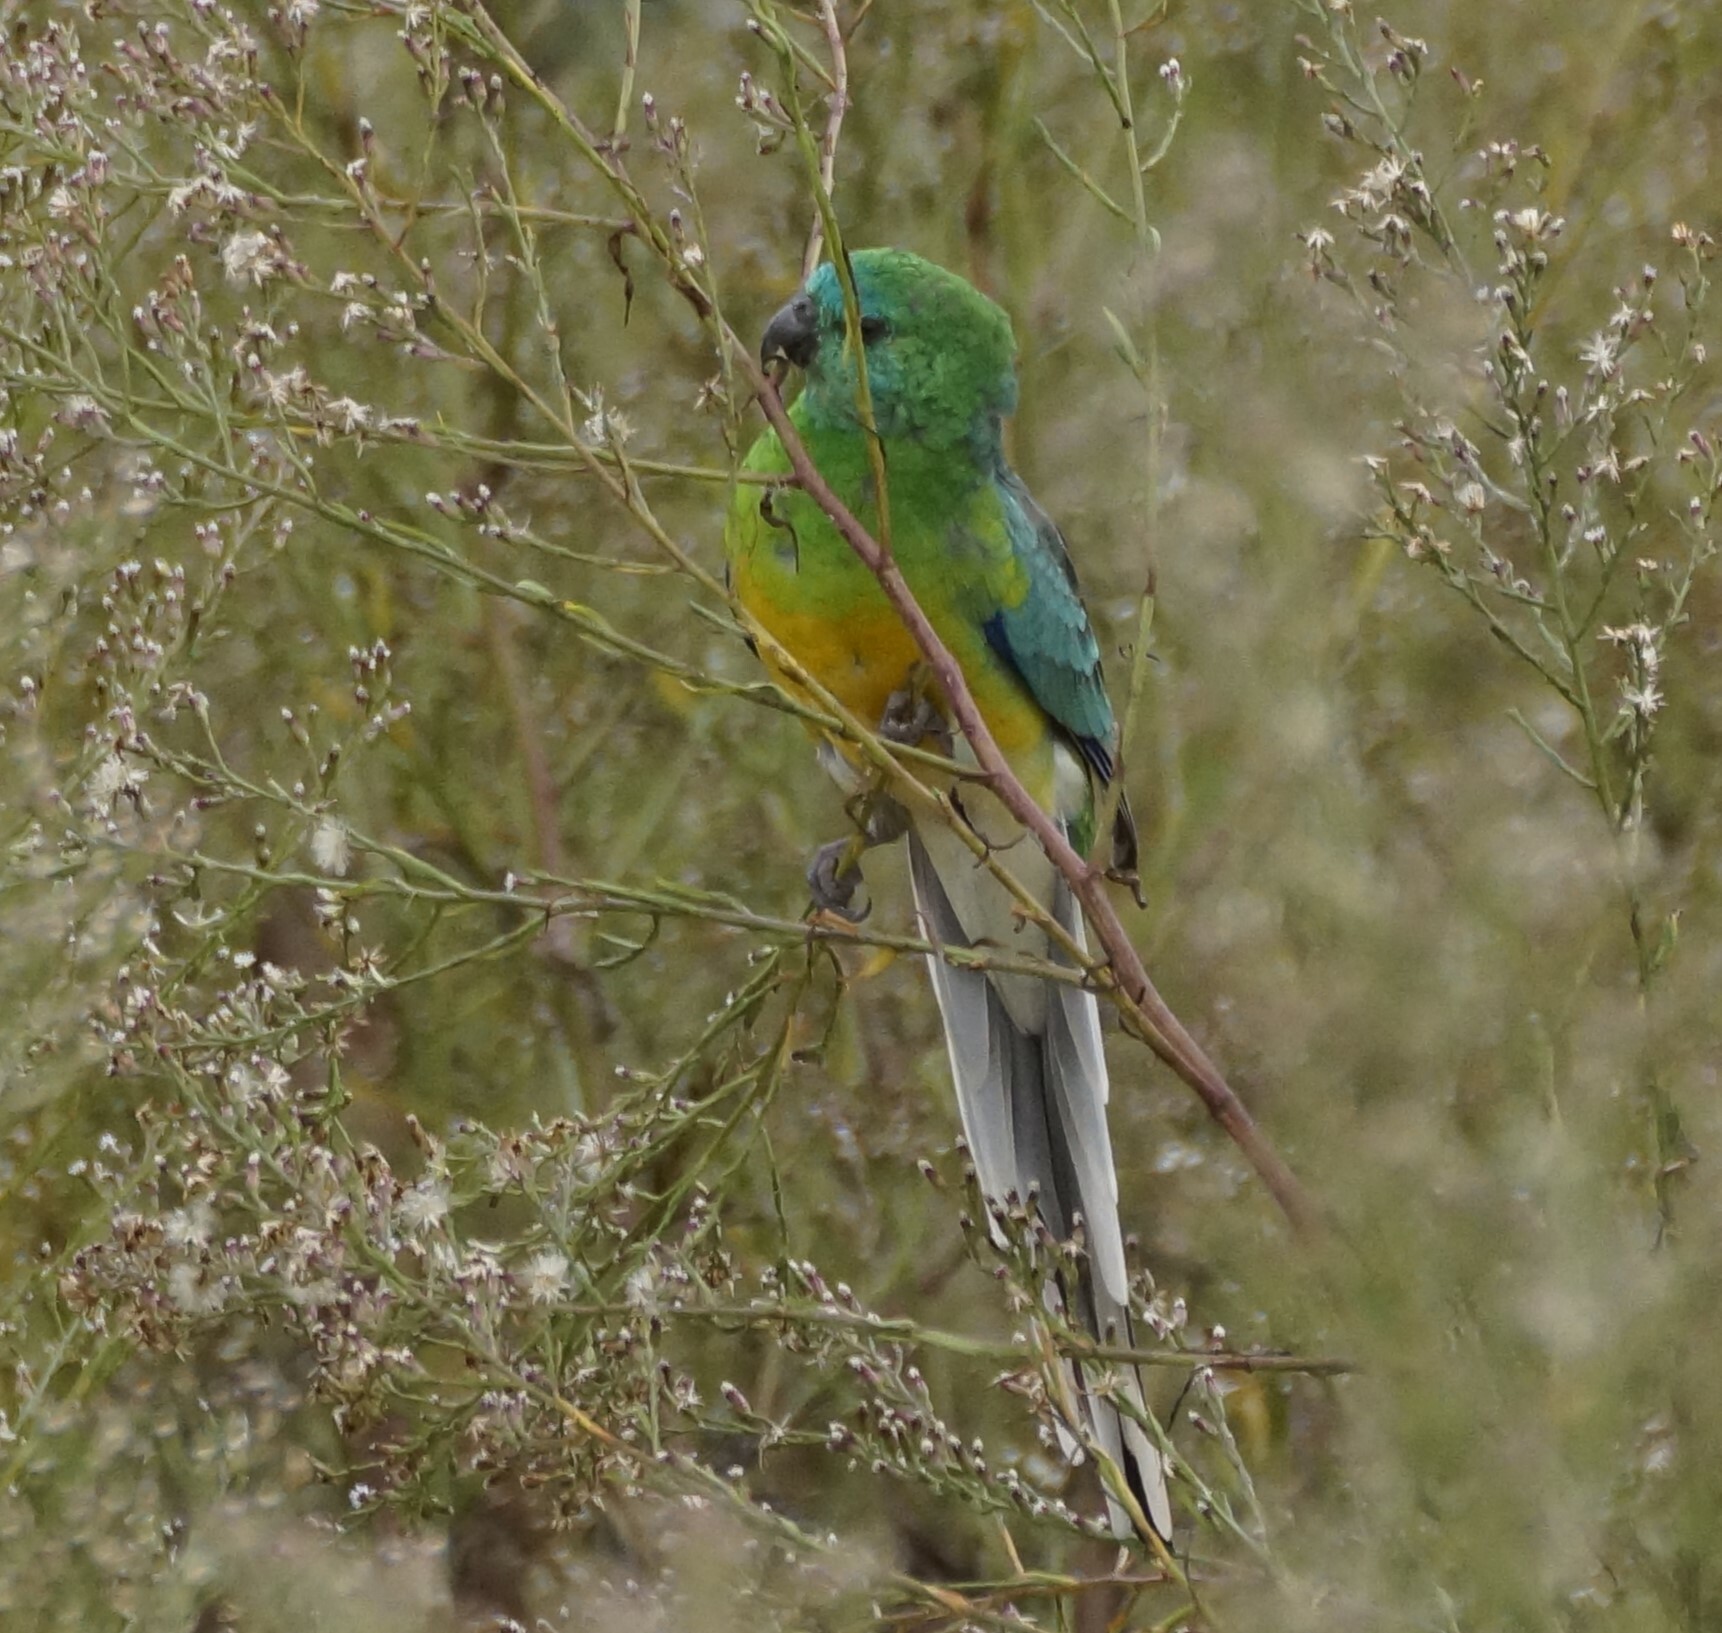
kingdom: Animalia
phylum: Chordata
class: Aves
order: Psittaciformes
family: Psittacidae
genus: Psephotus
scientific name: Psephotus haematonotus
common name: Red-rumped parrot
